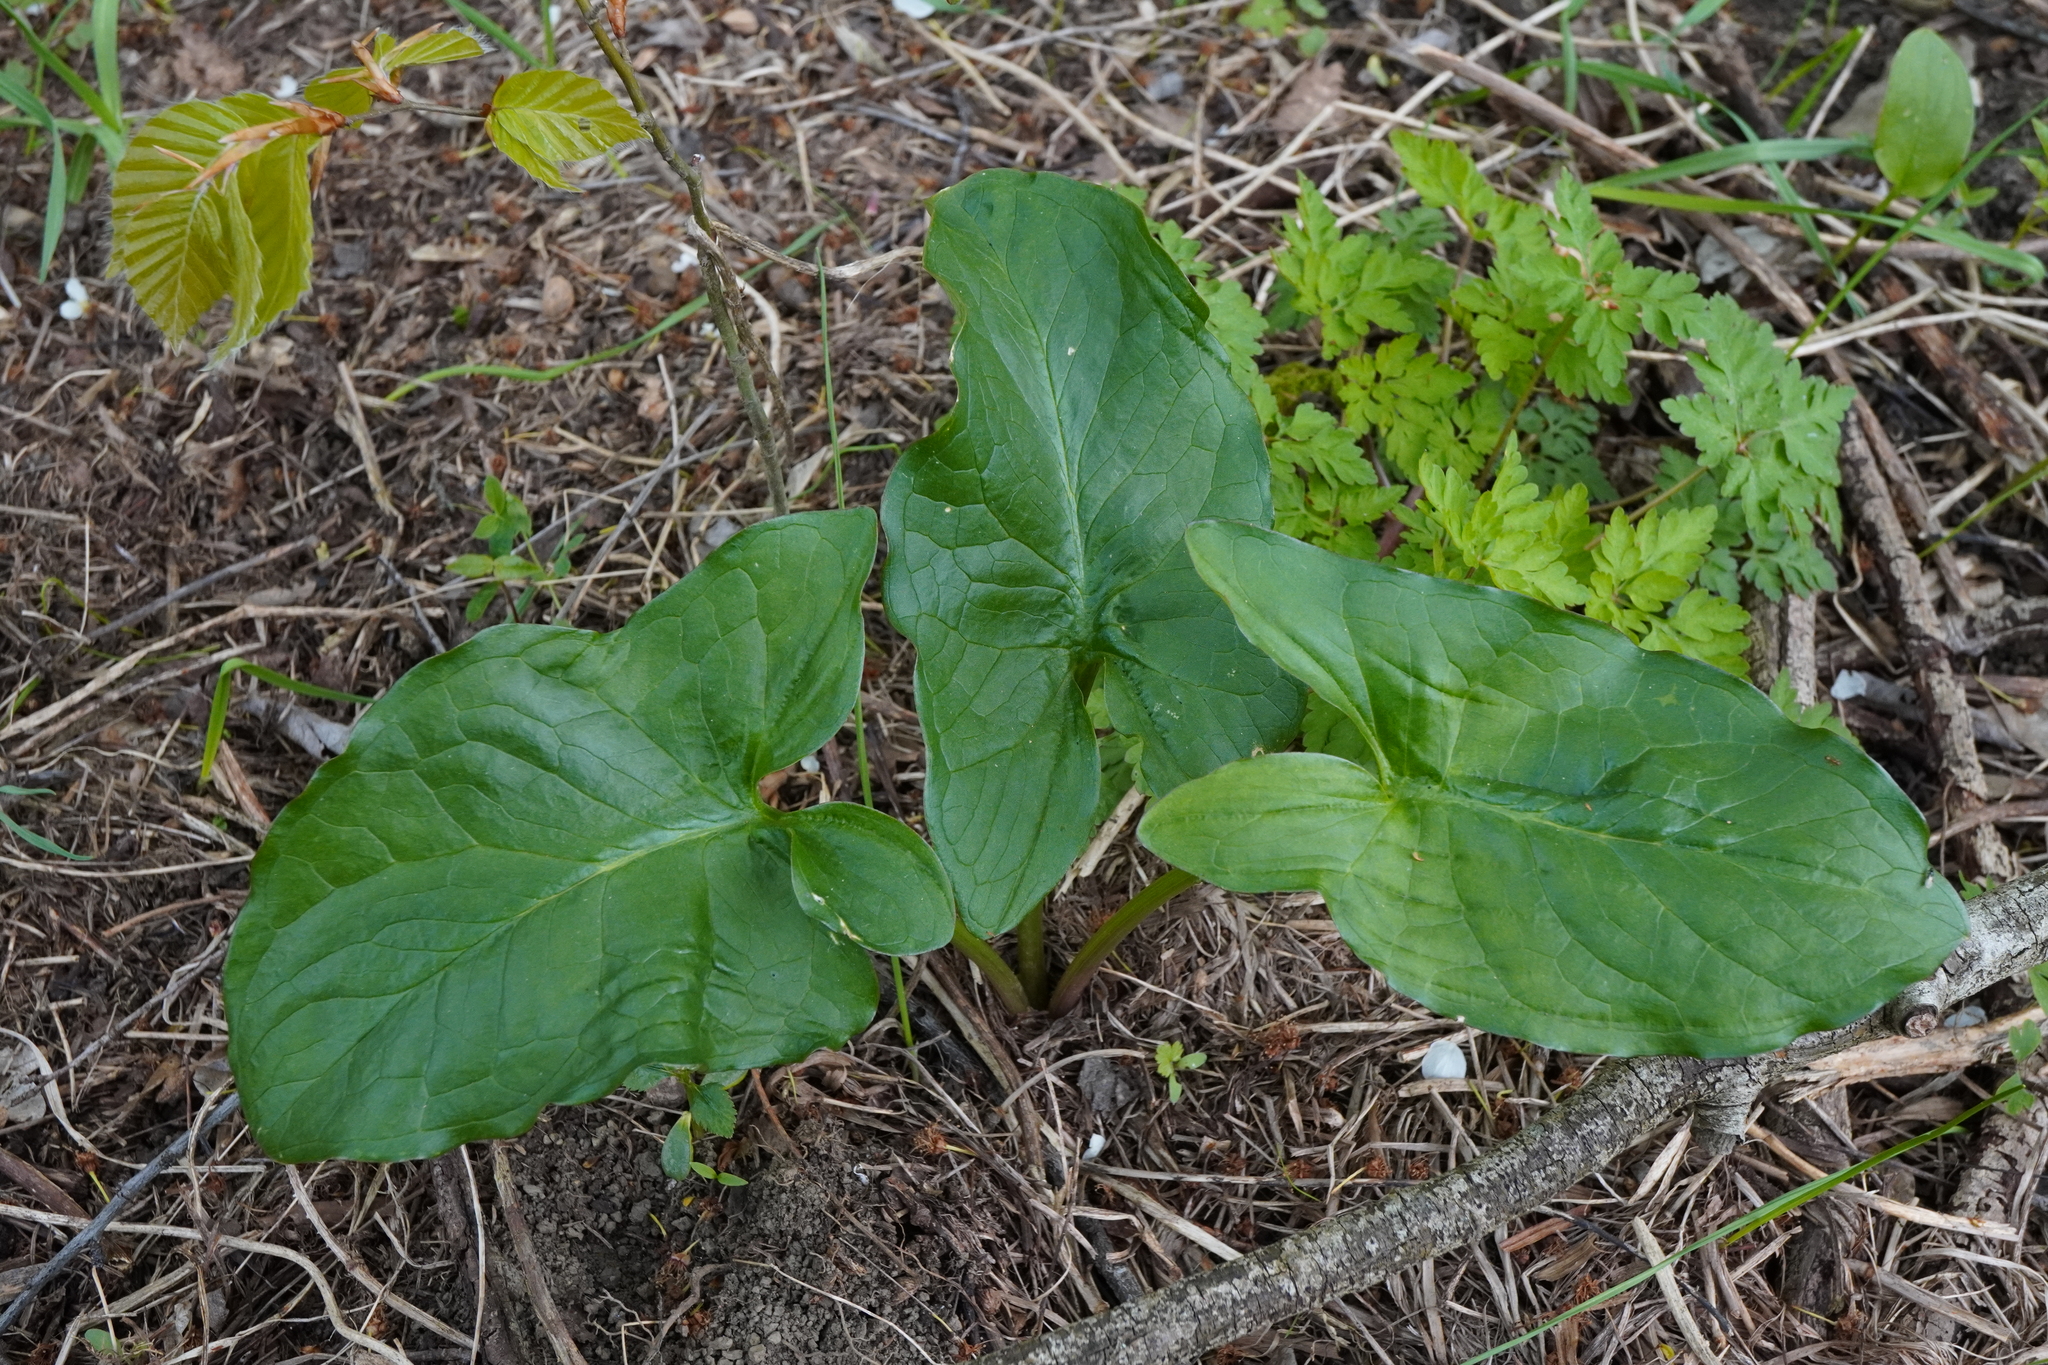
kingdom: Plantae
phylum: Tracheophyta
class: Liliopsida
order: Alismatales
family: Araceae
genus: Arum
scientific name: Arum cylindraceum
